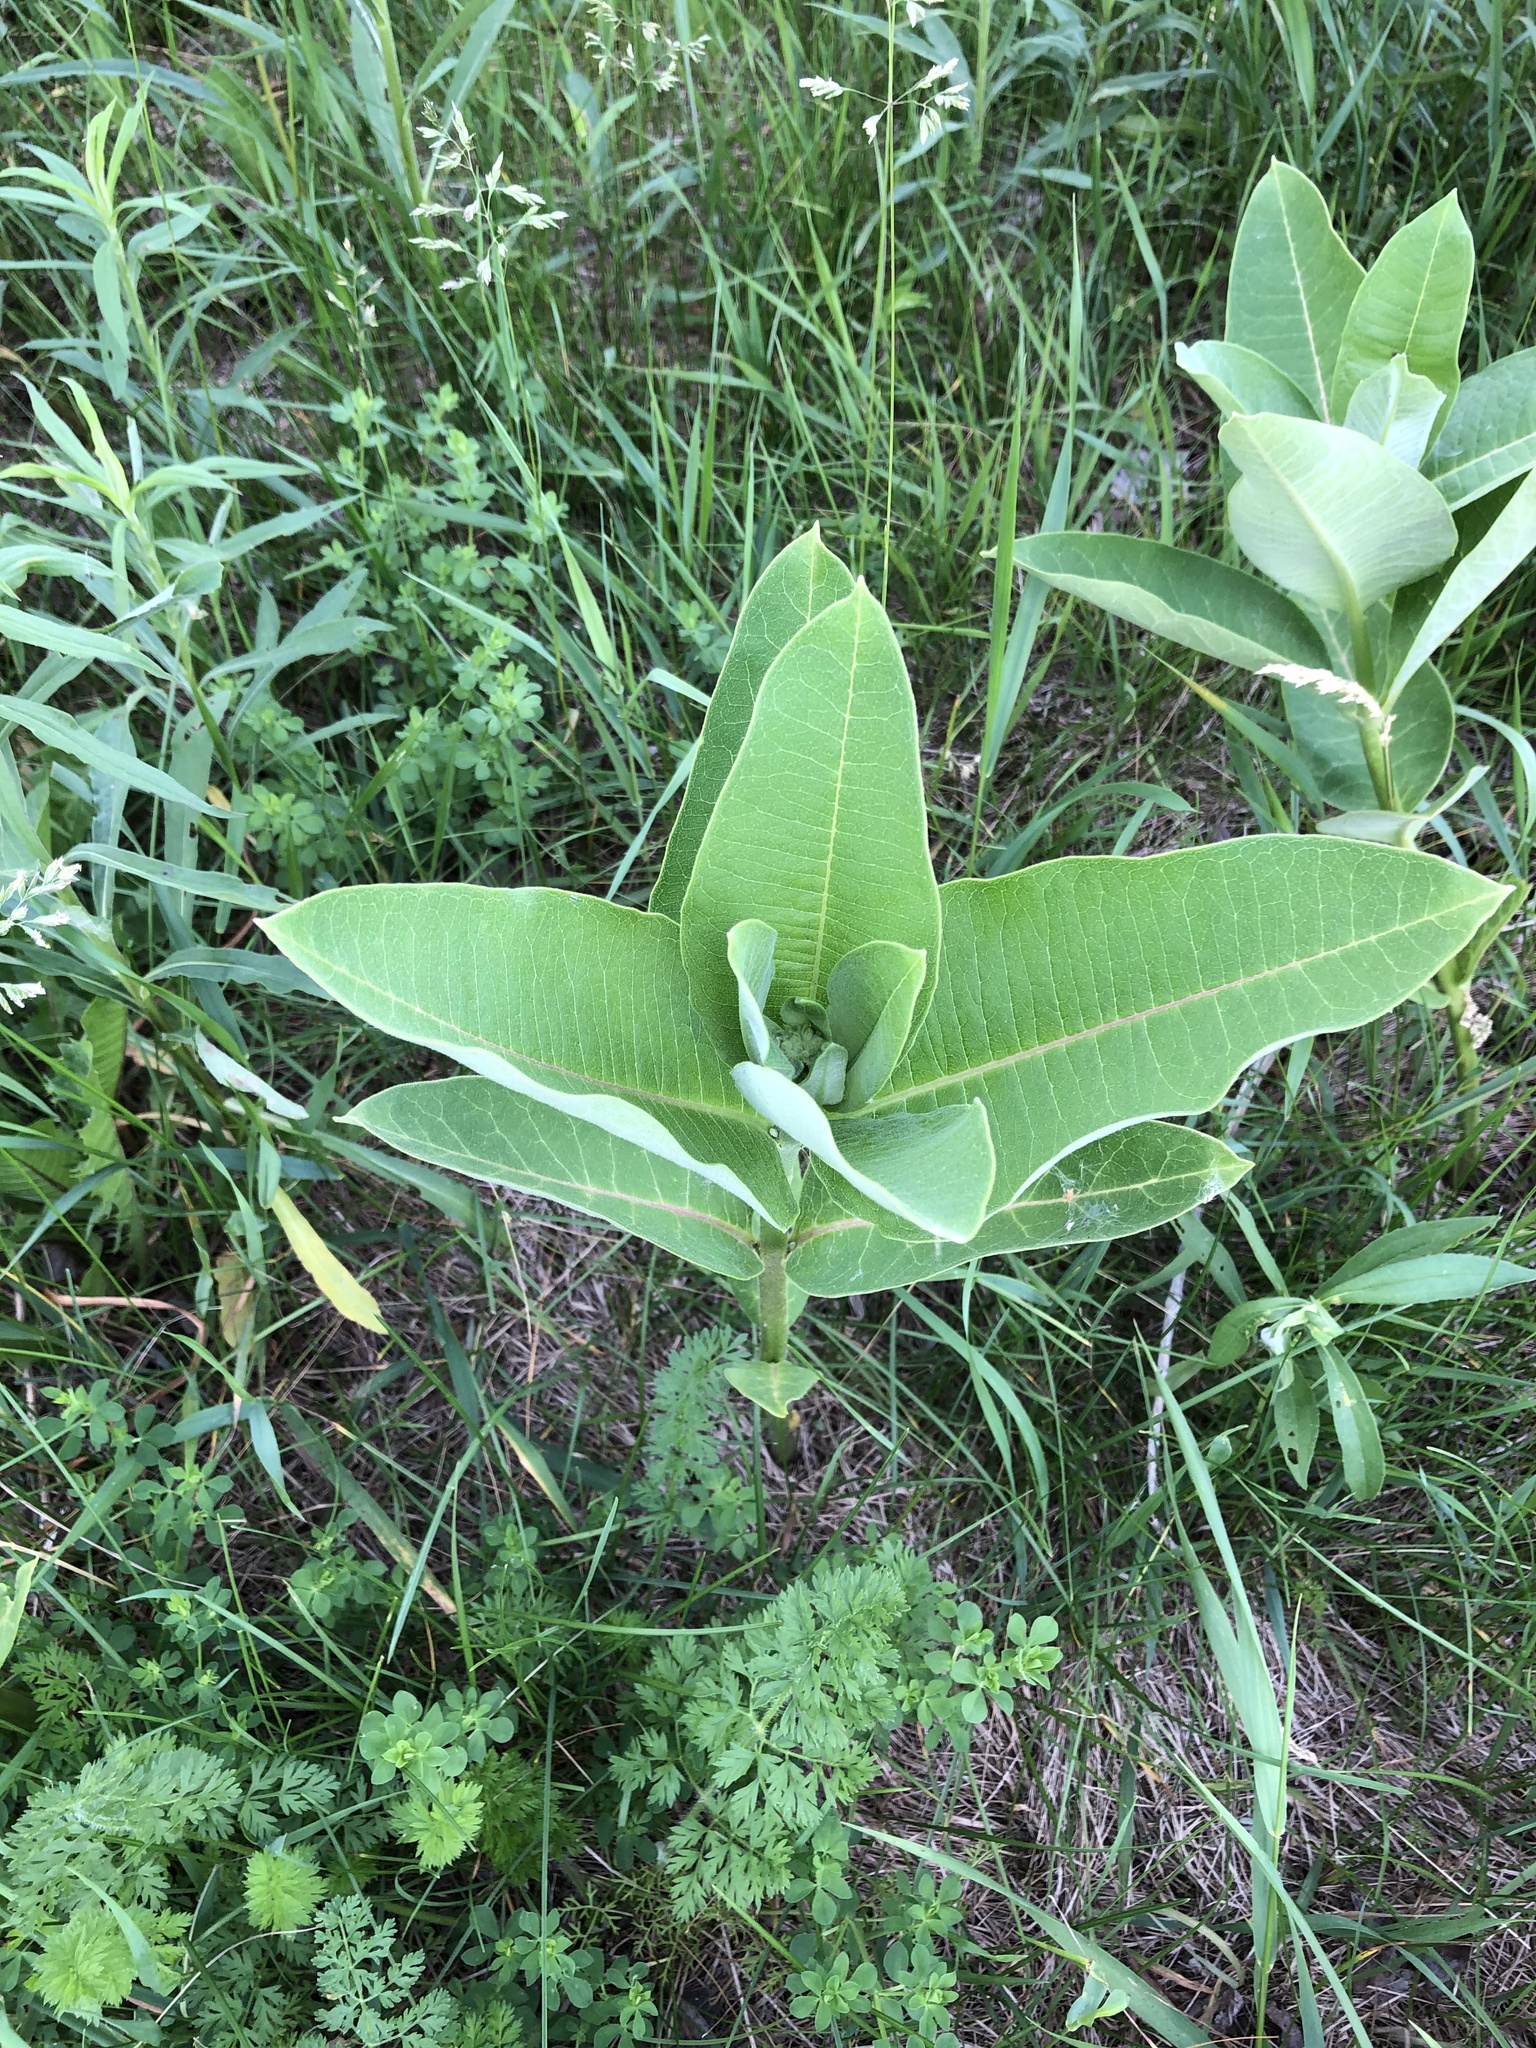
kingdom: Plantae
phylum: Tracheophyta
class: Magnoliopsida
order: Gentianales
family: Apocynaceae
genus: Asclepias
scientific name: Asclepias syriaca
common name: Common milkweed
